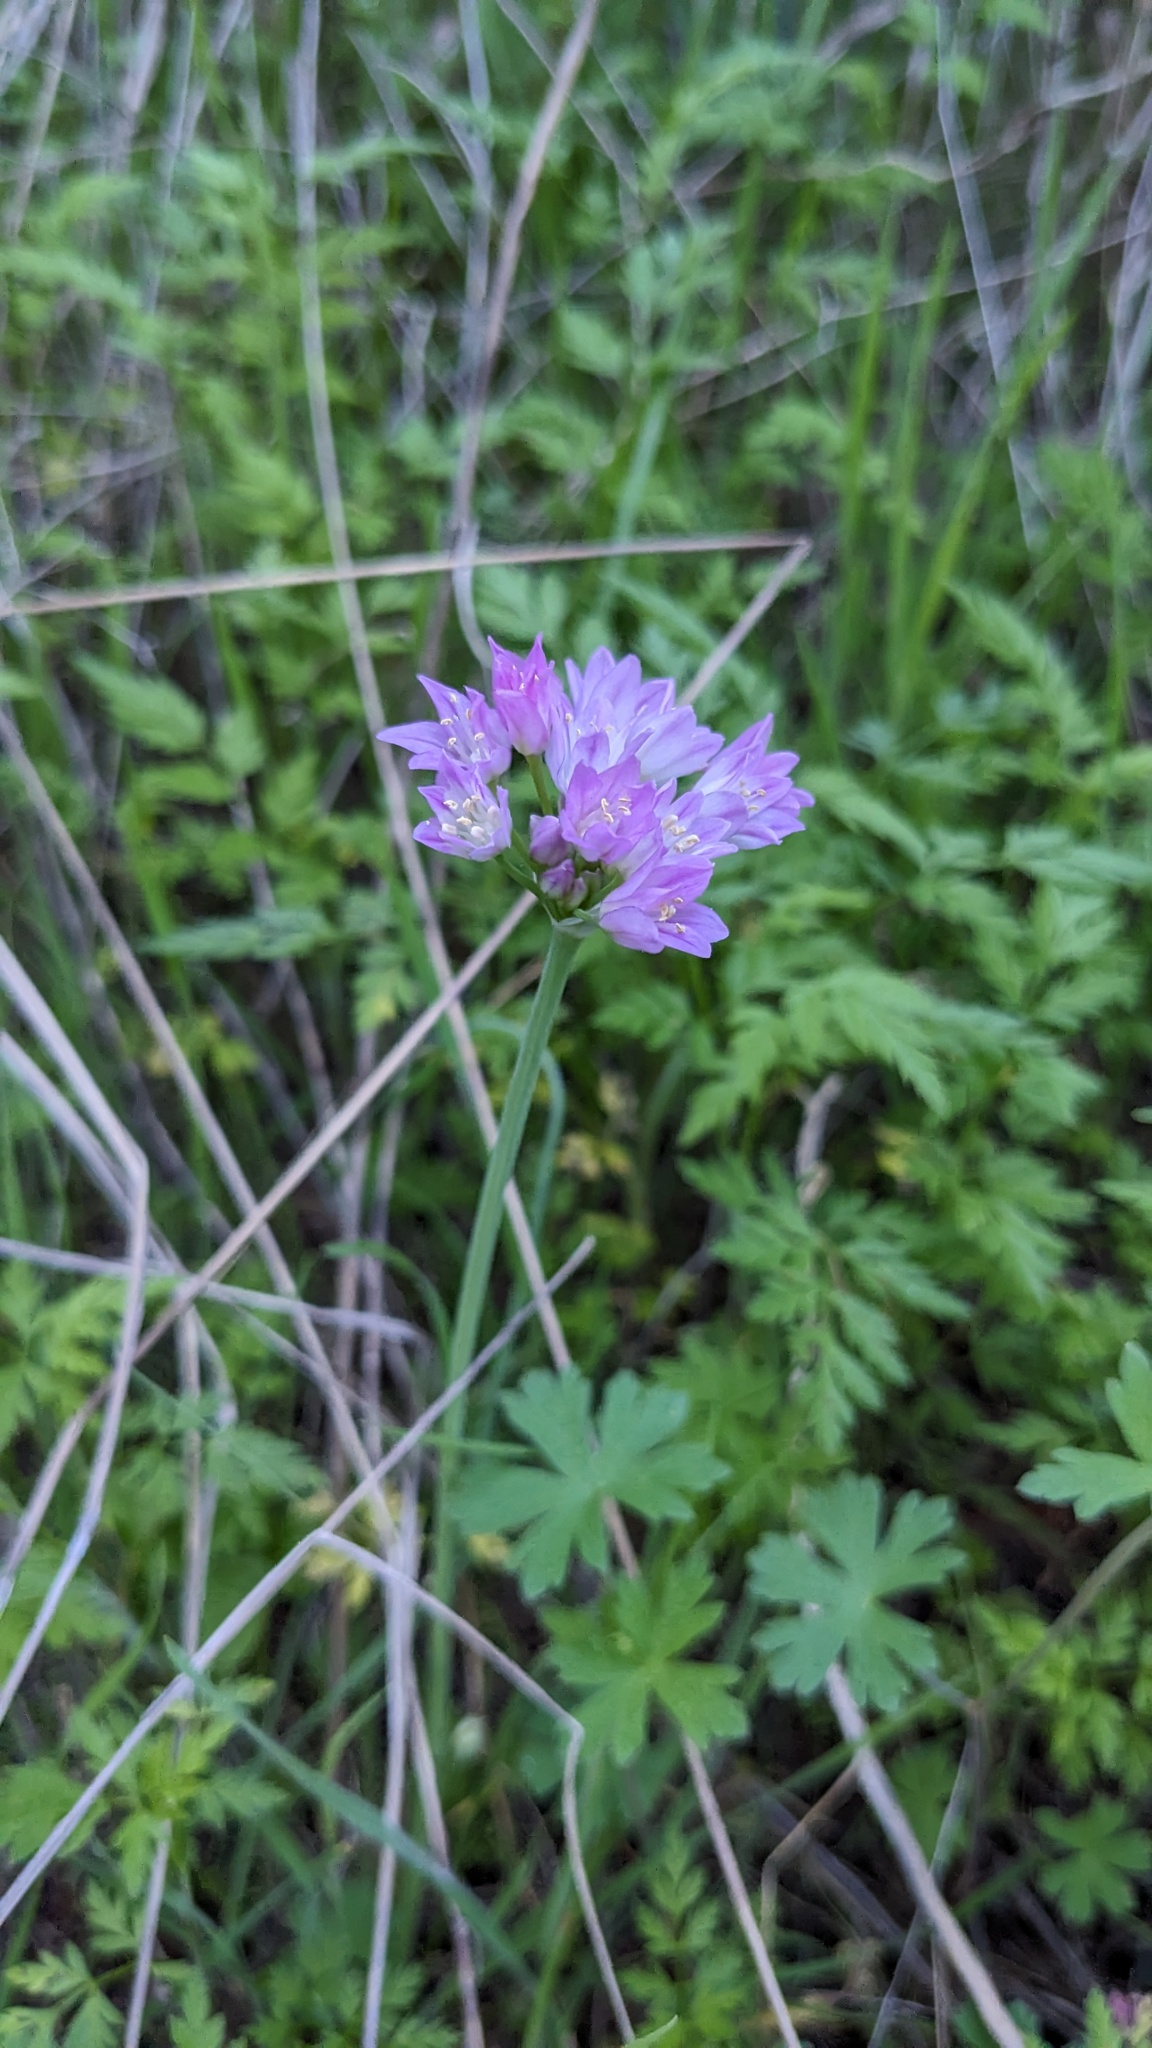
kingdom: Plantae
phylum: Tracheophyta
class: Liliopsida
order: Asparagales
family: Amaryllidaceae
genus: Allium
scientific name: Allium drummondii
